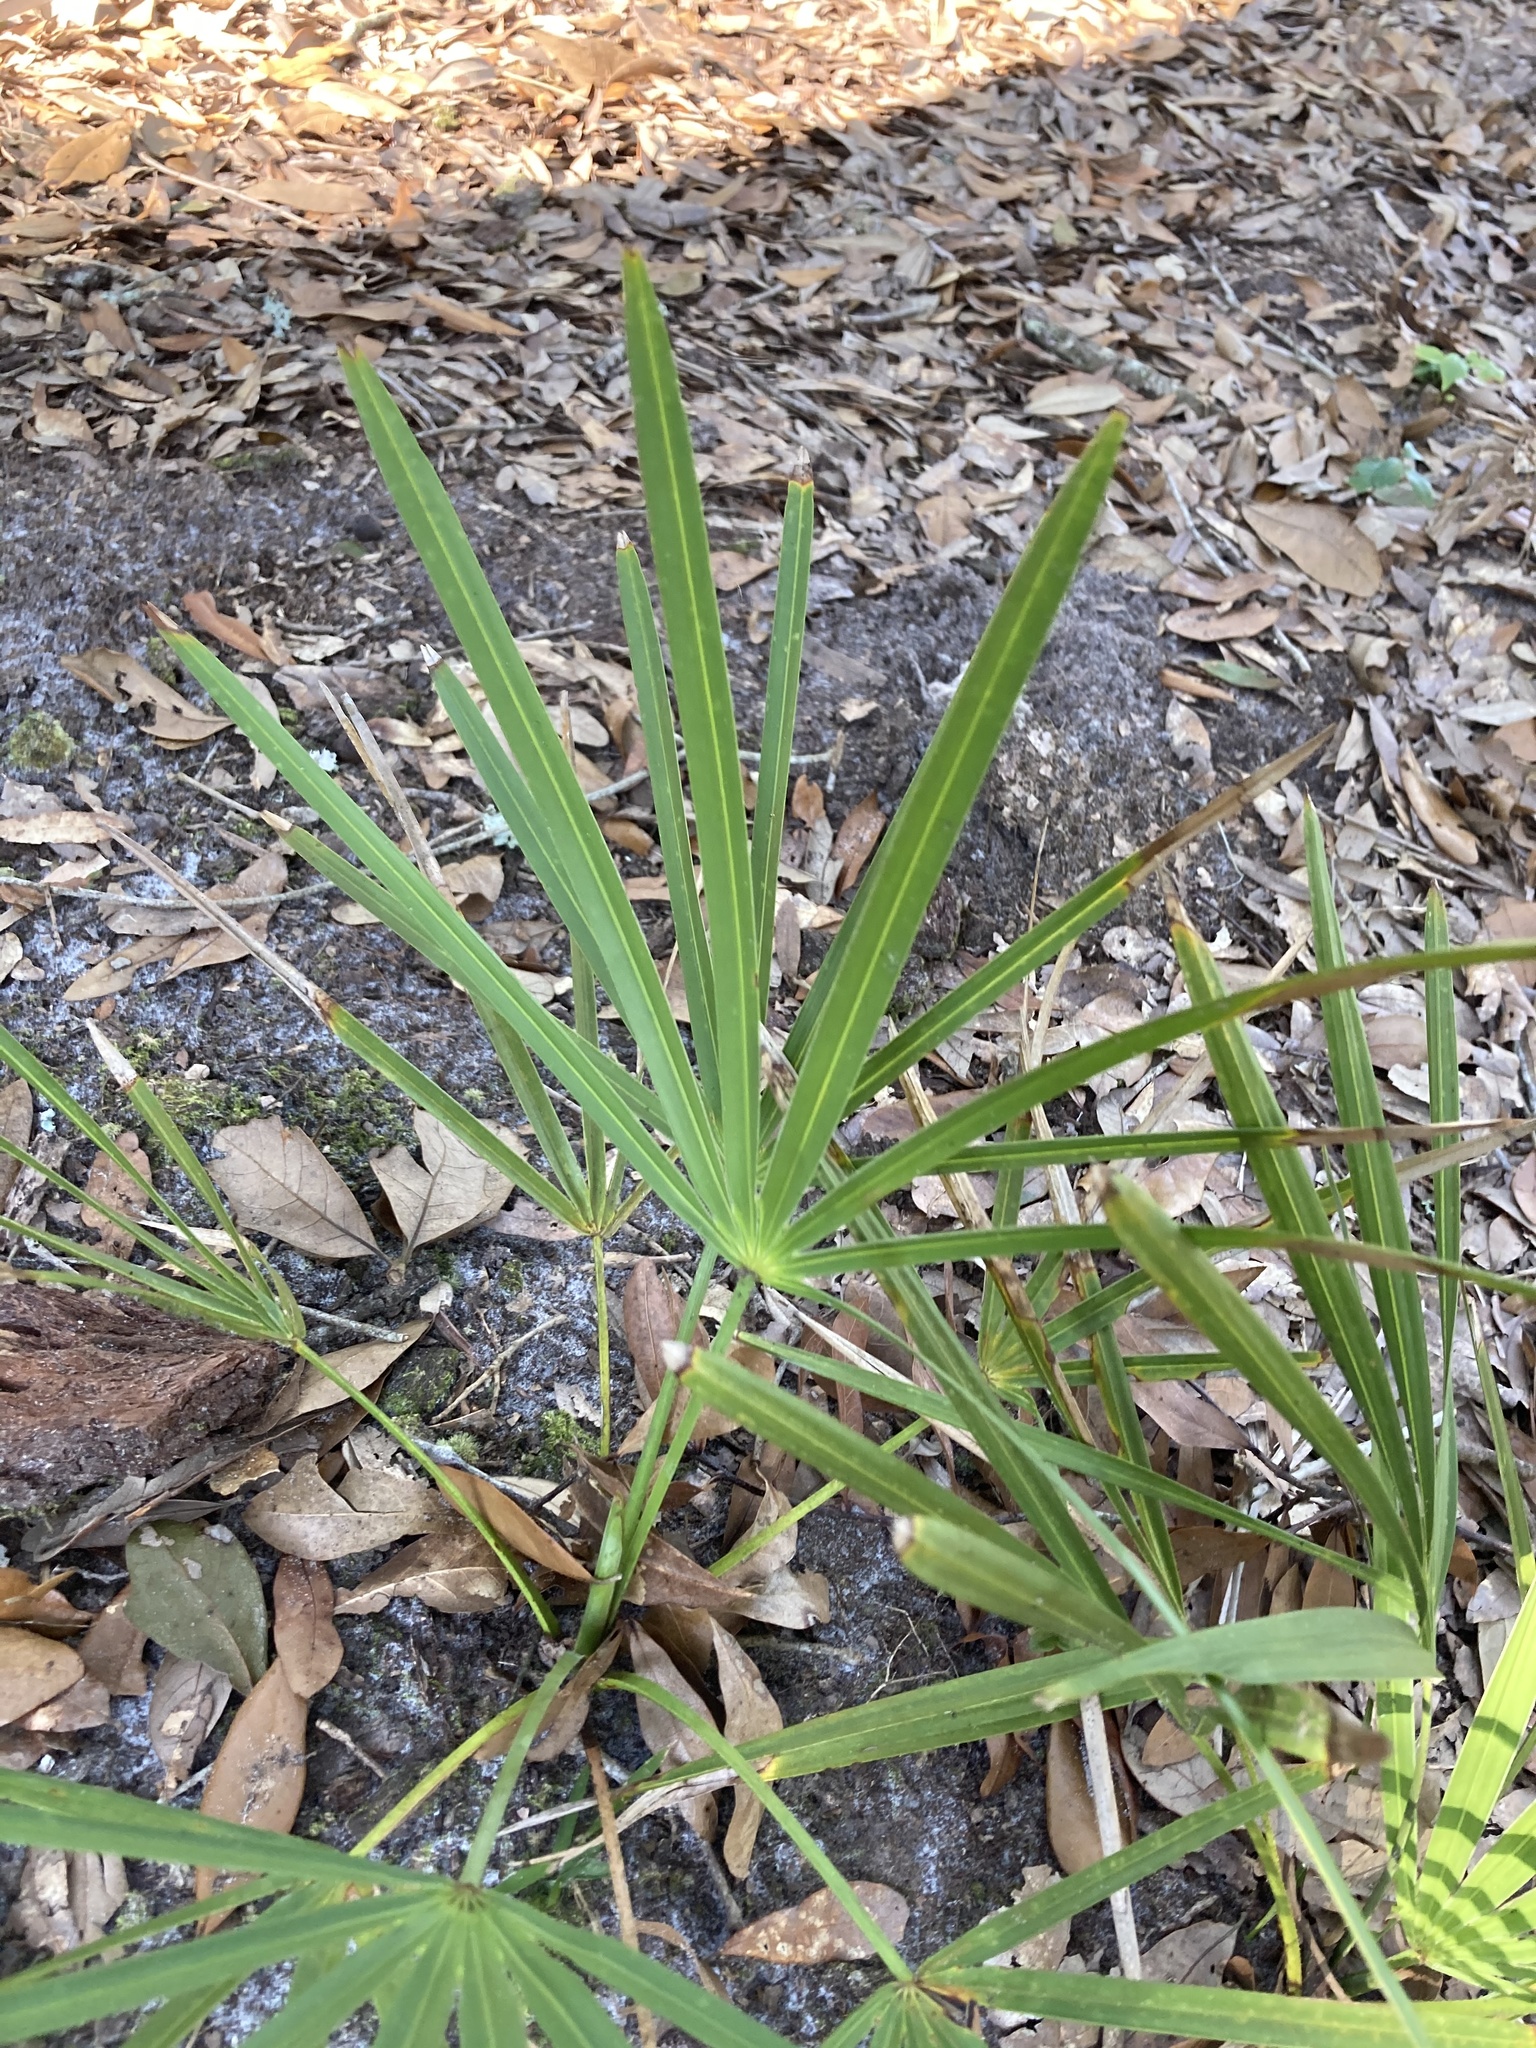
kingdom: Plantae
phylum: Tracheophyta
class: Liliopsida
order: Arecales
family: Arecaceae
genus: Serenoa
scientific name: Serenoa repens
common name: Saw-palmetto
